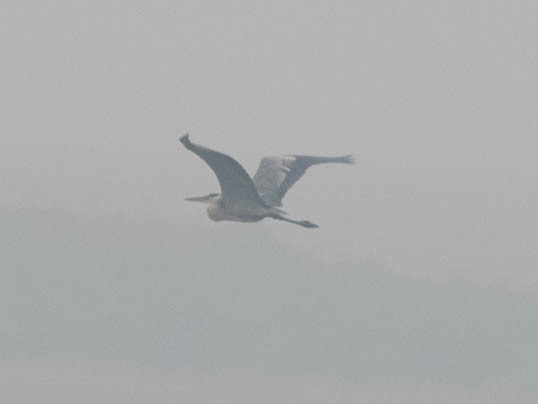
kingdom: Animalia
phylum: Chordata
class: Aves
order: Pelecaniformes
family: Ardeidae
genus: Ardea
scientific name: Ardea herodias
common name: Great blue heron
